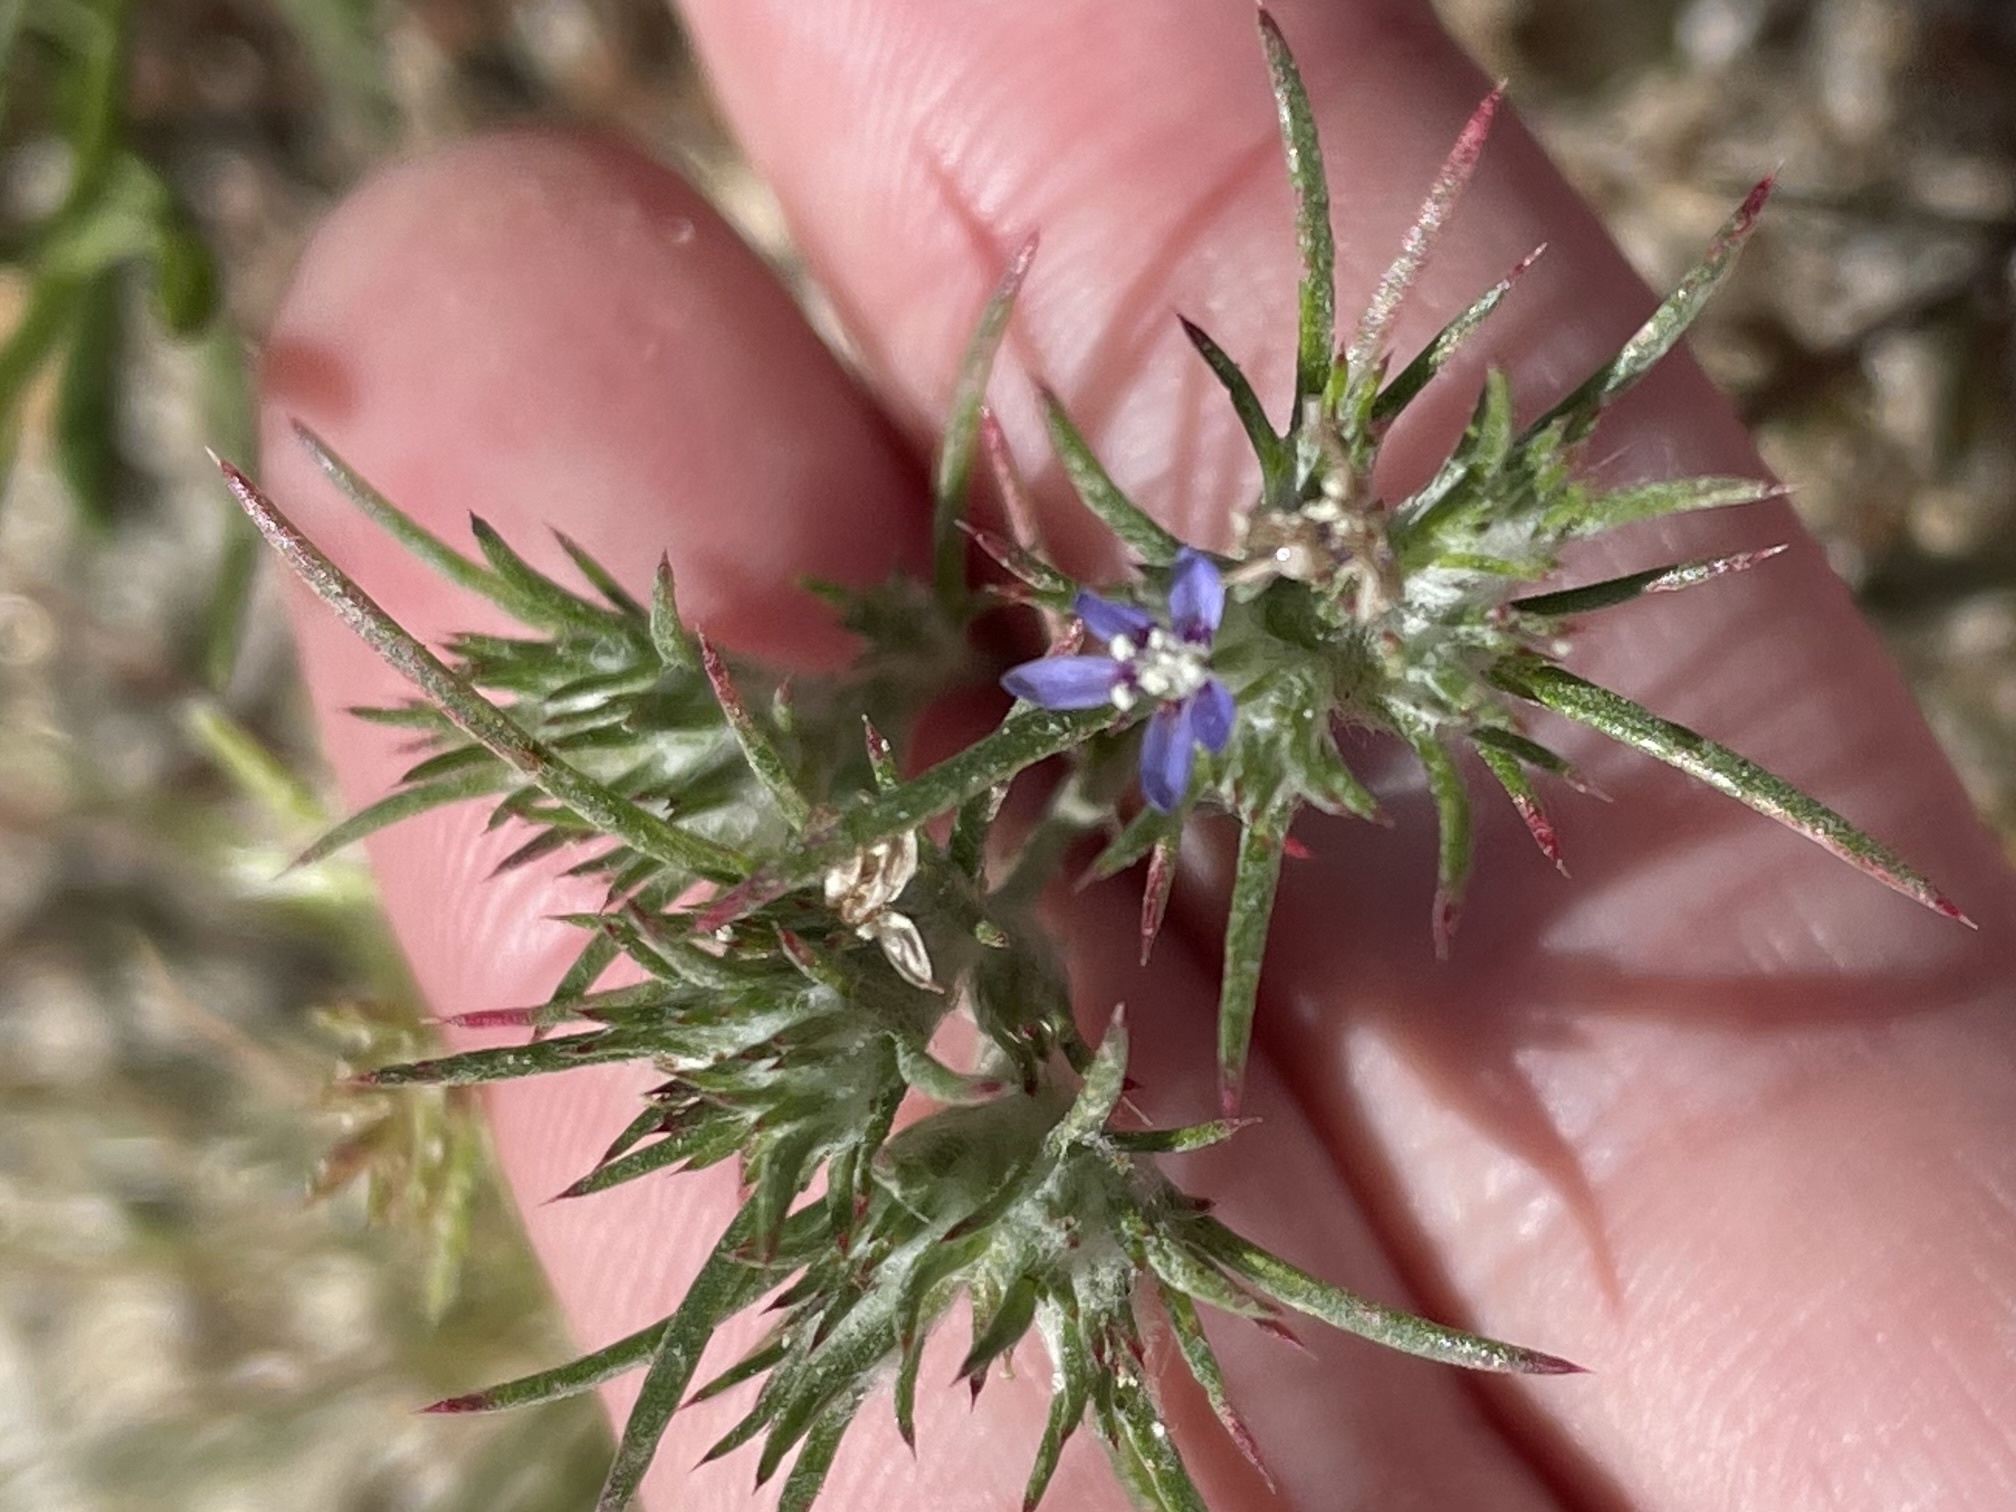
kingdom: Plantae
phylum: Tracheophyta
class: Magnoliopsida
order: Ericales
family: Polemoniaceae
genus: Eriastrum
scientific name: Eriastrum filifolium
